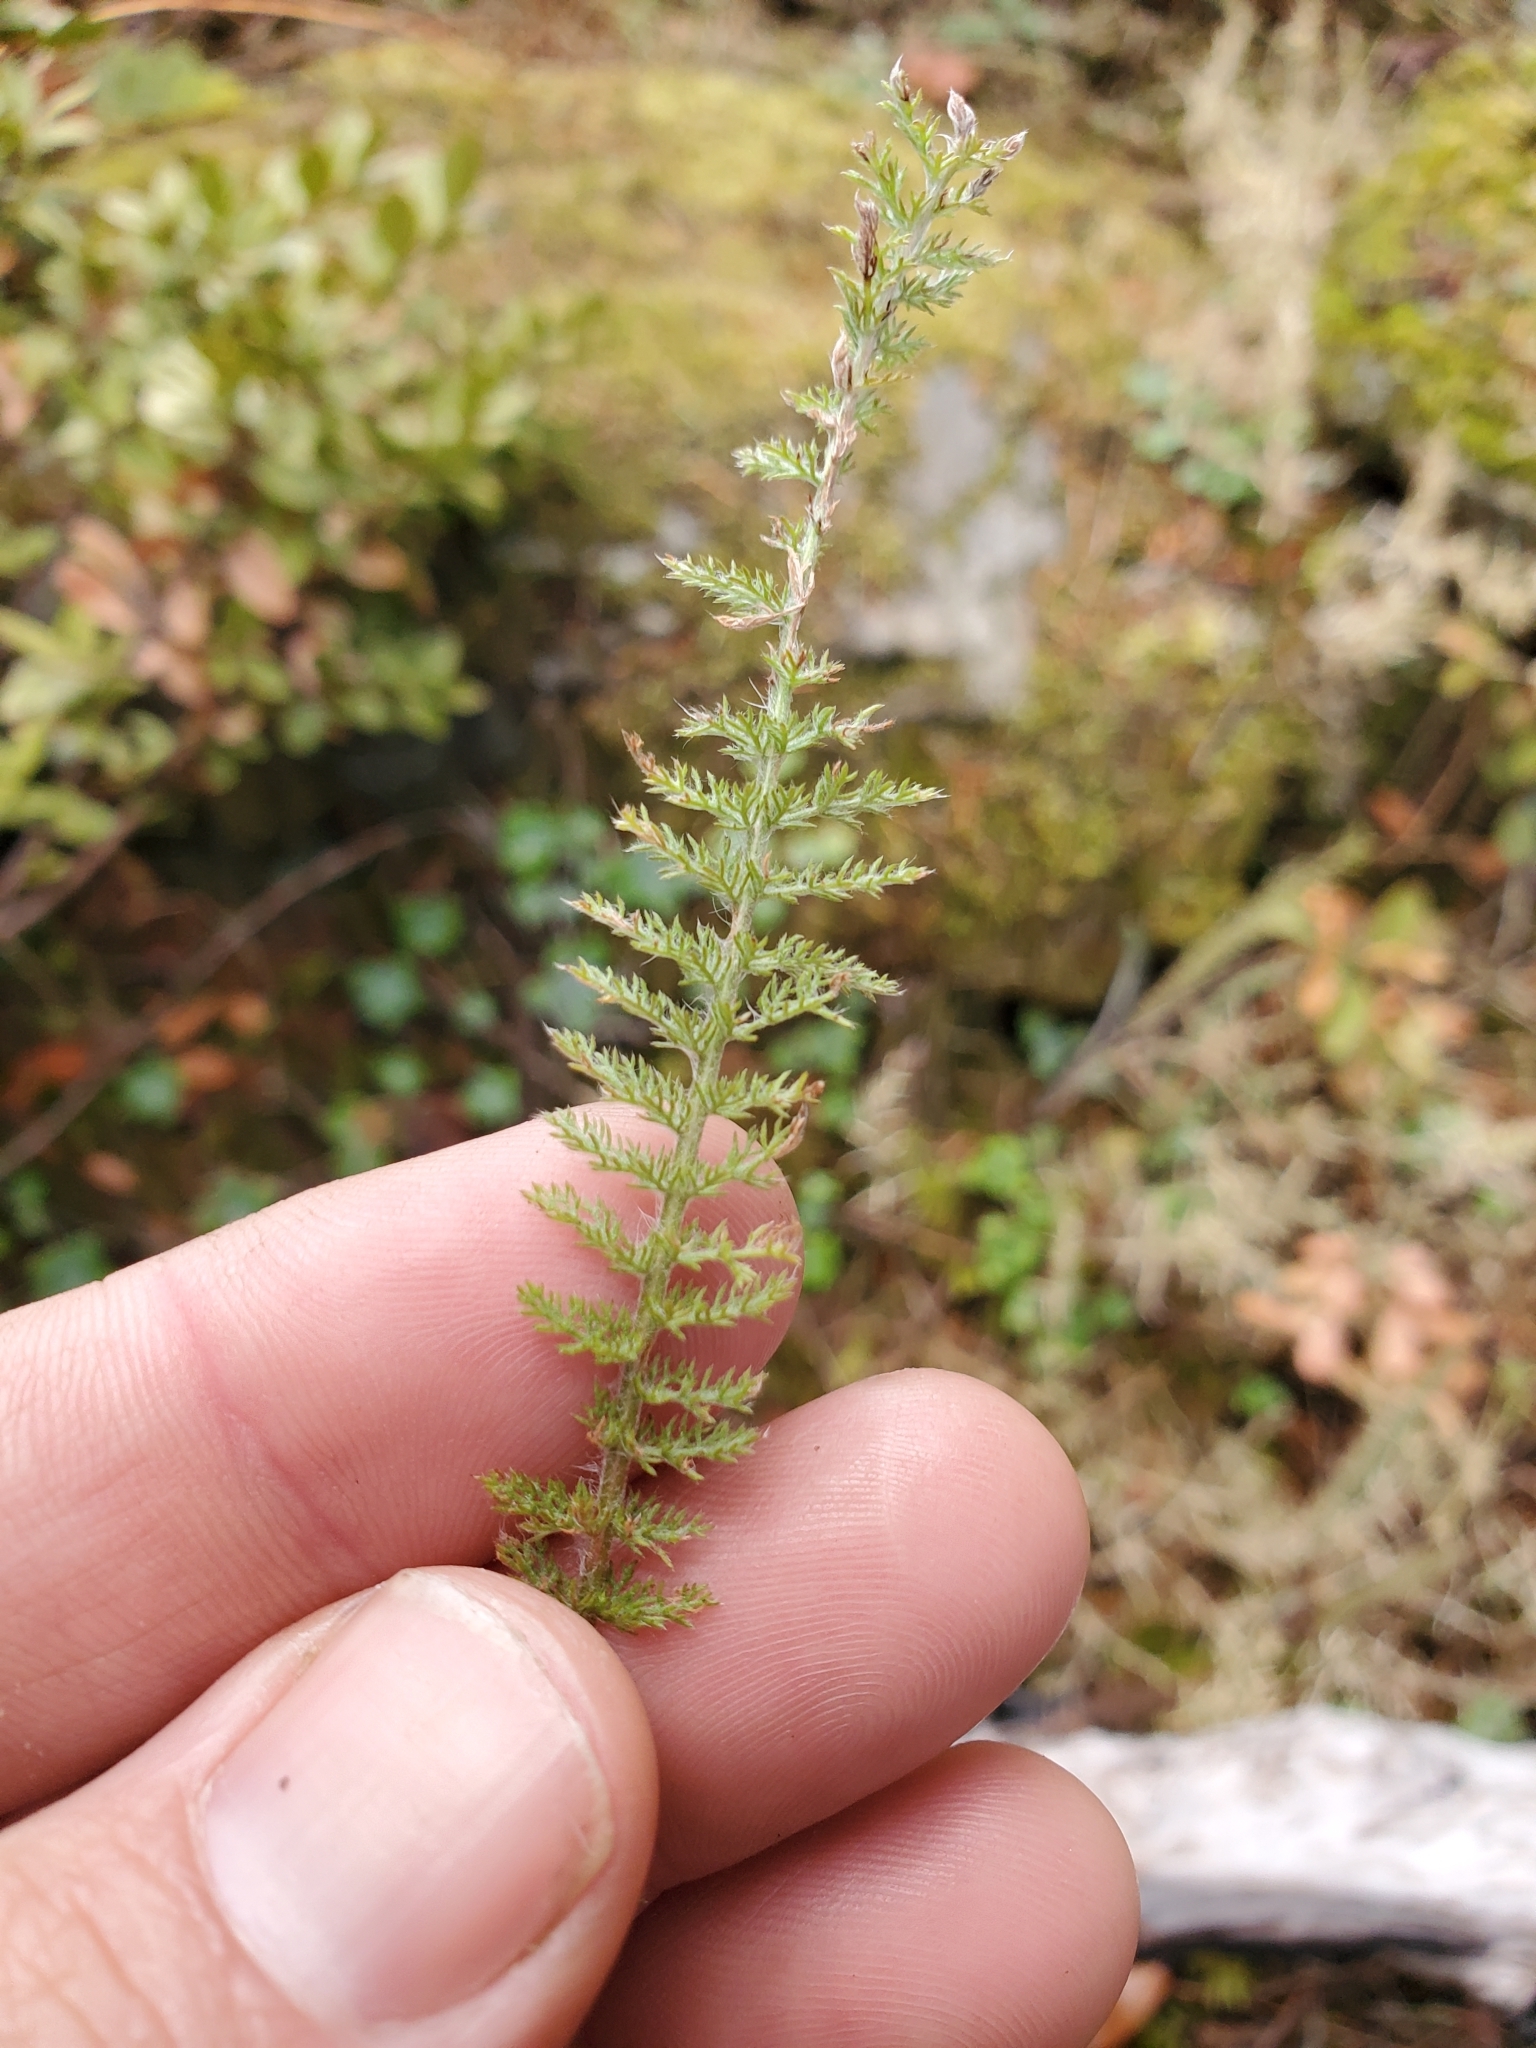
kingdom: Plantae
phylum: Tracheophyta
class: Magnoliopsida
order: Asterales
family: Asteraceae
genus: Achillea
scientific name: Achillea millefolium
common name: Yarrow
